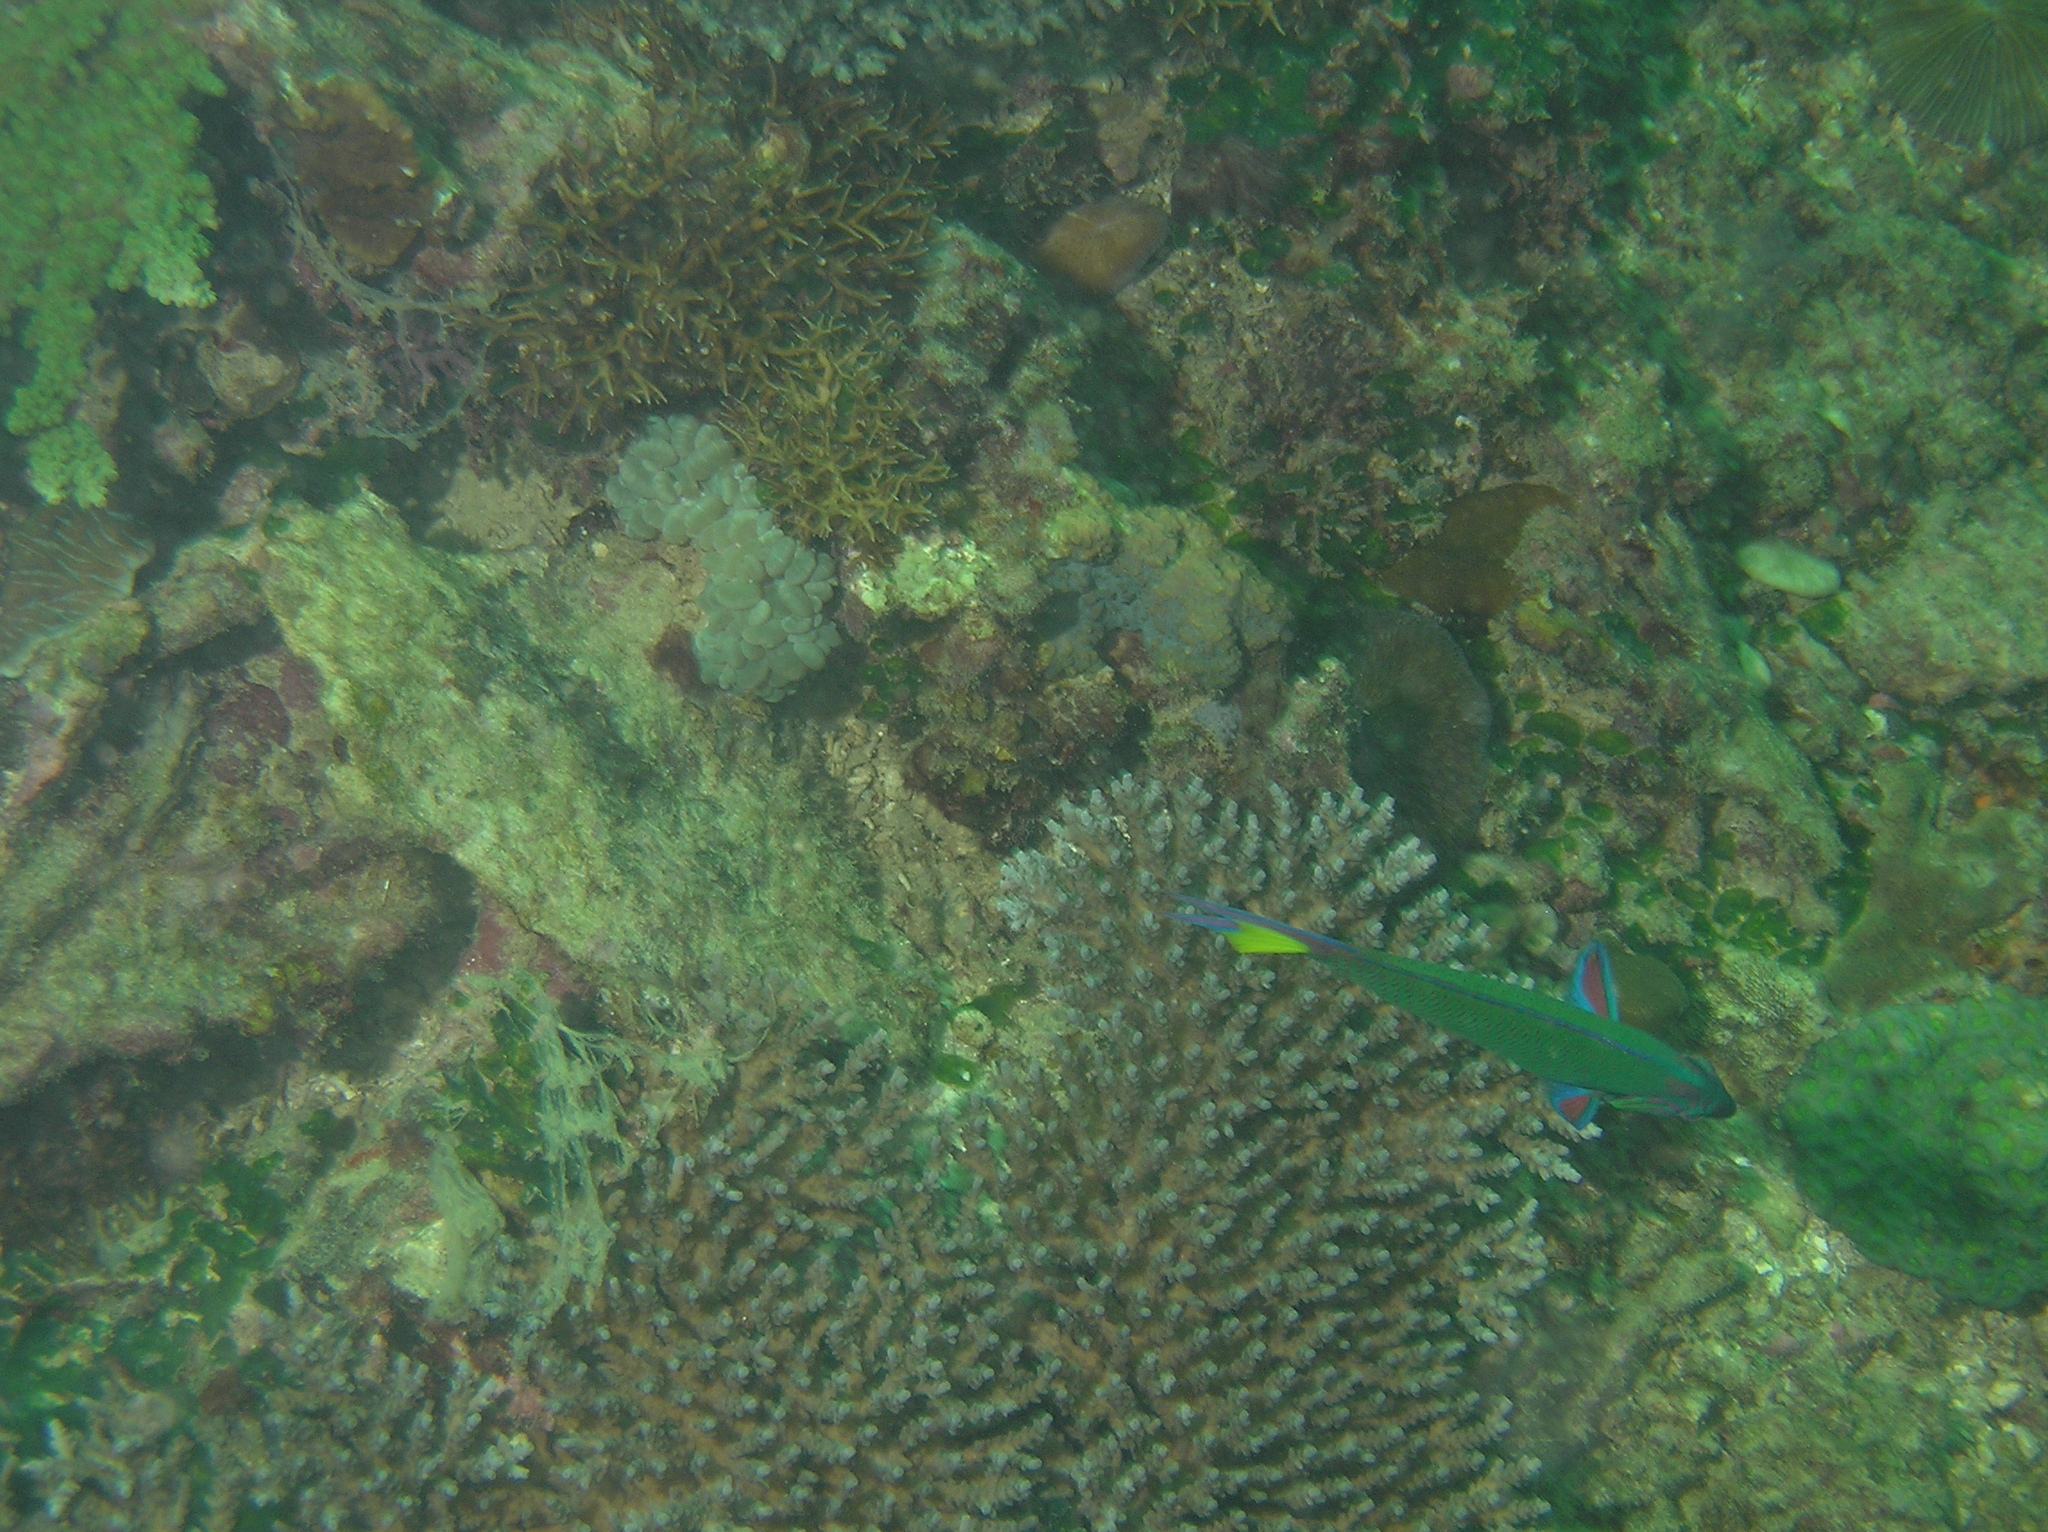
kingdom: Animalia
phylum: Chordata
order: Perciformes
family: Labridae
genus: Thalassoma
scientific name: Thalassoma lunare
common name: Blue wrasse
